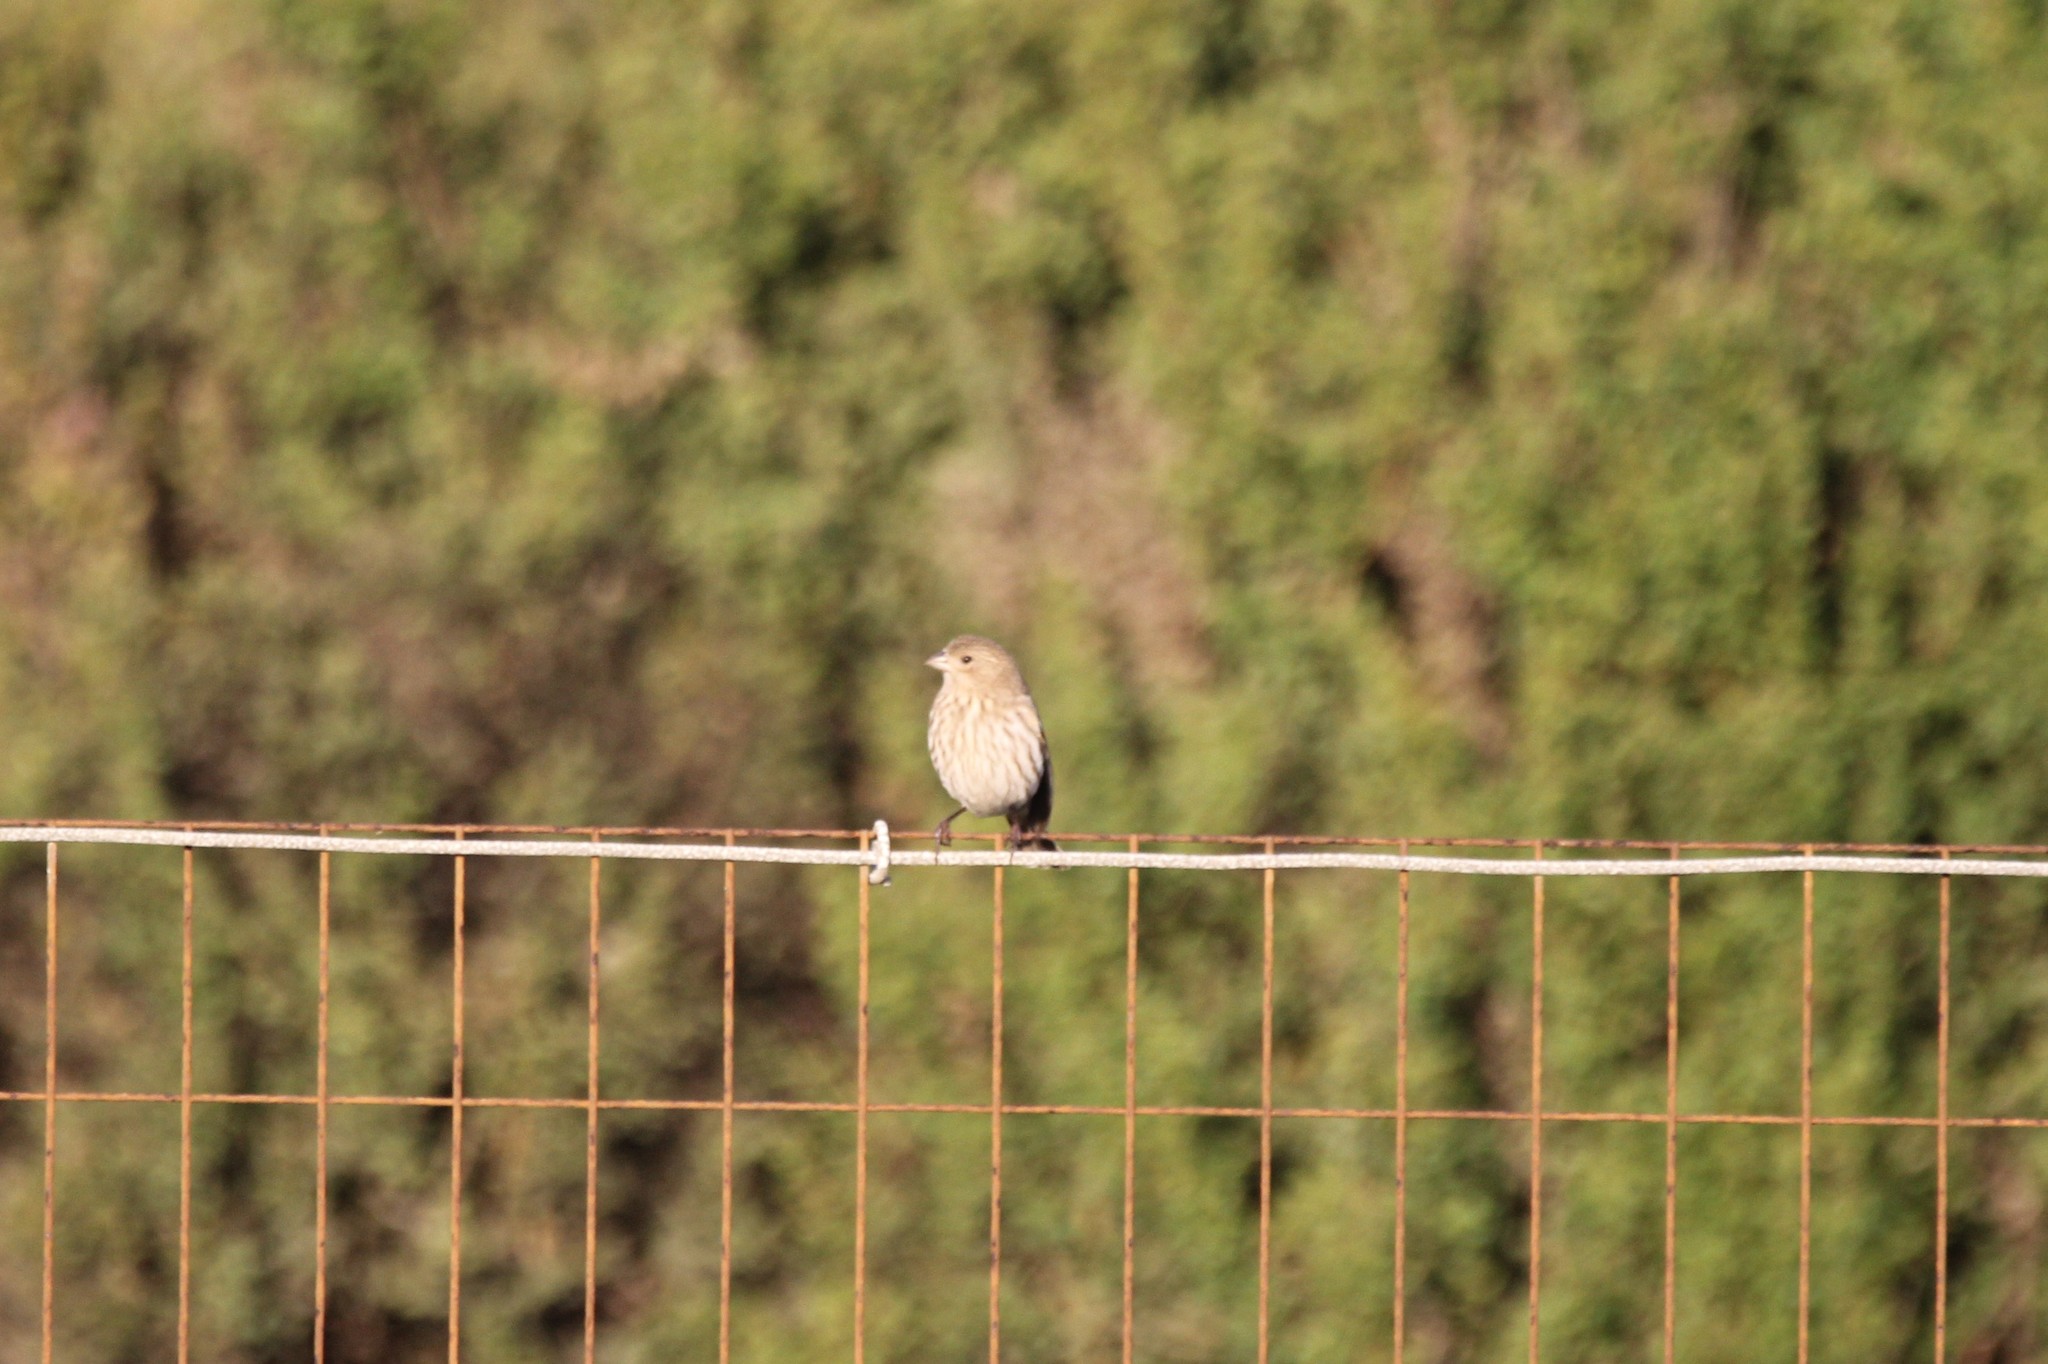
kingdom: Animalia
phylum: Chordata
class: Aves
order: Passeriformes
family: Fringillidae
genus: Haemorhous
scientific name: Haemorhous mexicanus
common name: House finch
